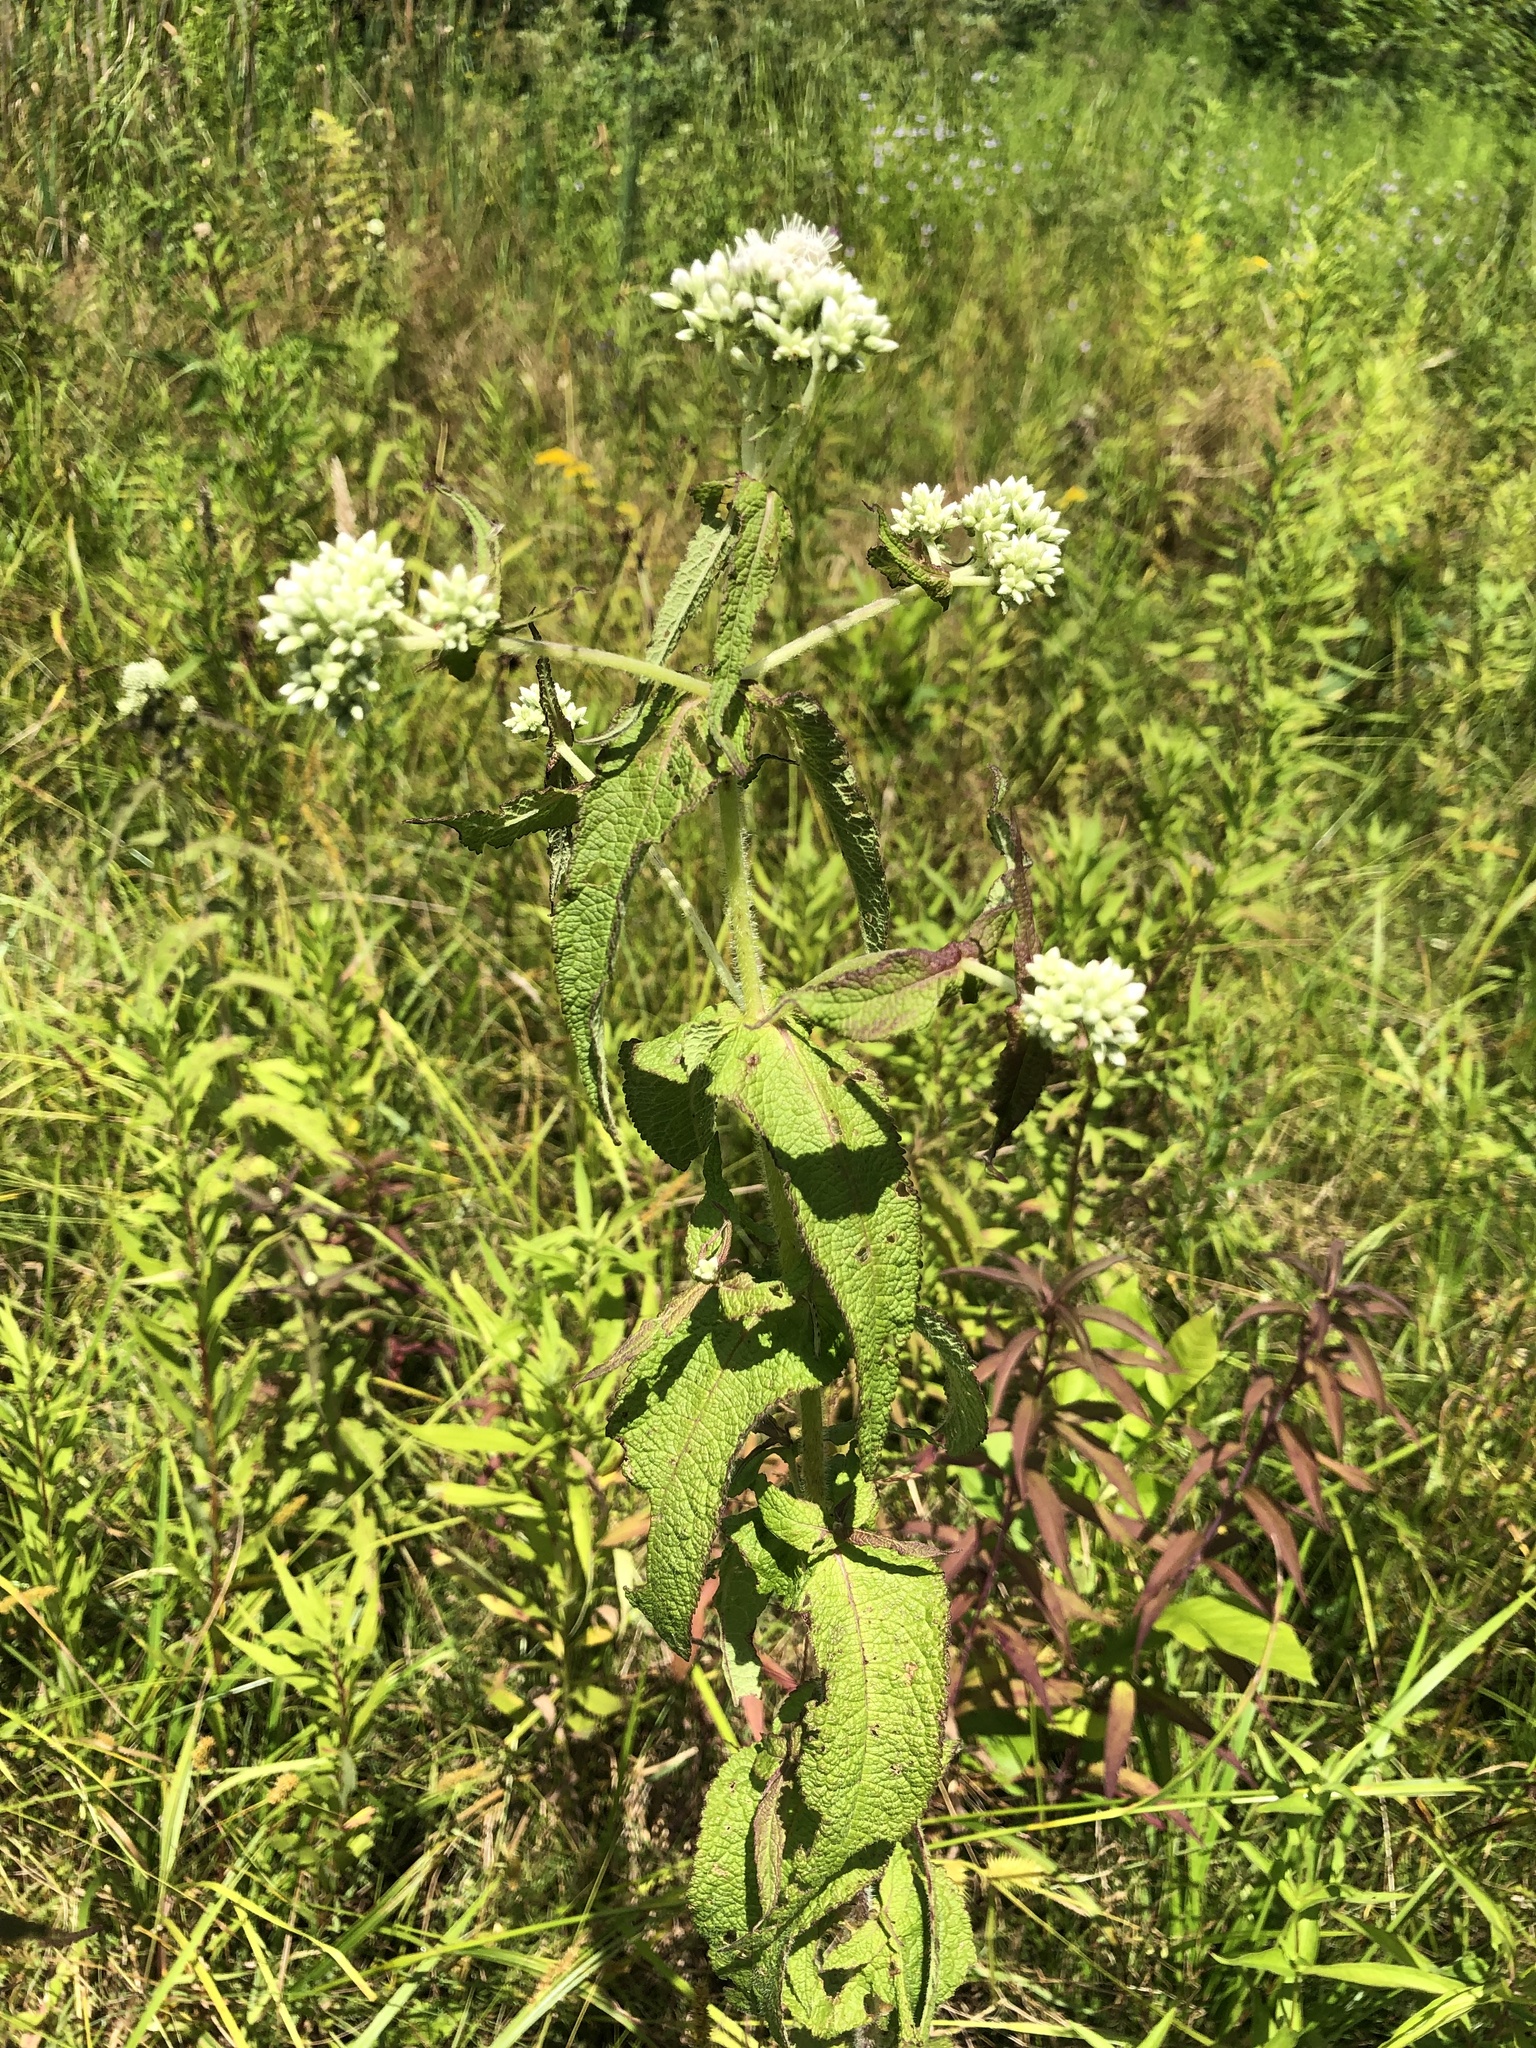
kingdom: Plantae
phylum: Tracheophyta
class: Magnoliopsida
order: Asterales
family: Asteraceae
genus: Eupatorium
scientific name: Eupatorium perfoliatum
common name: Boneset
